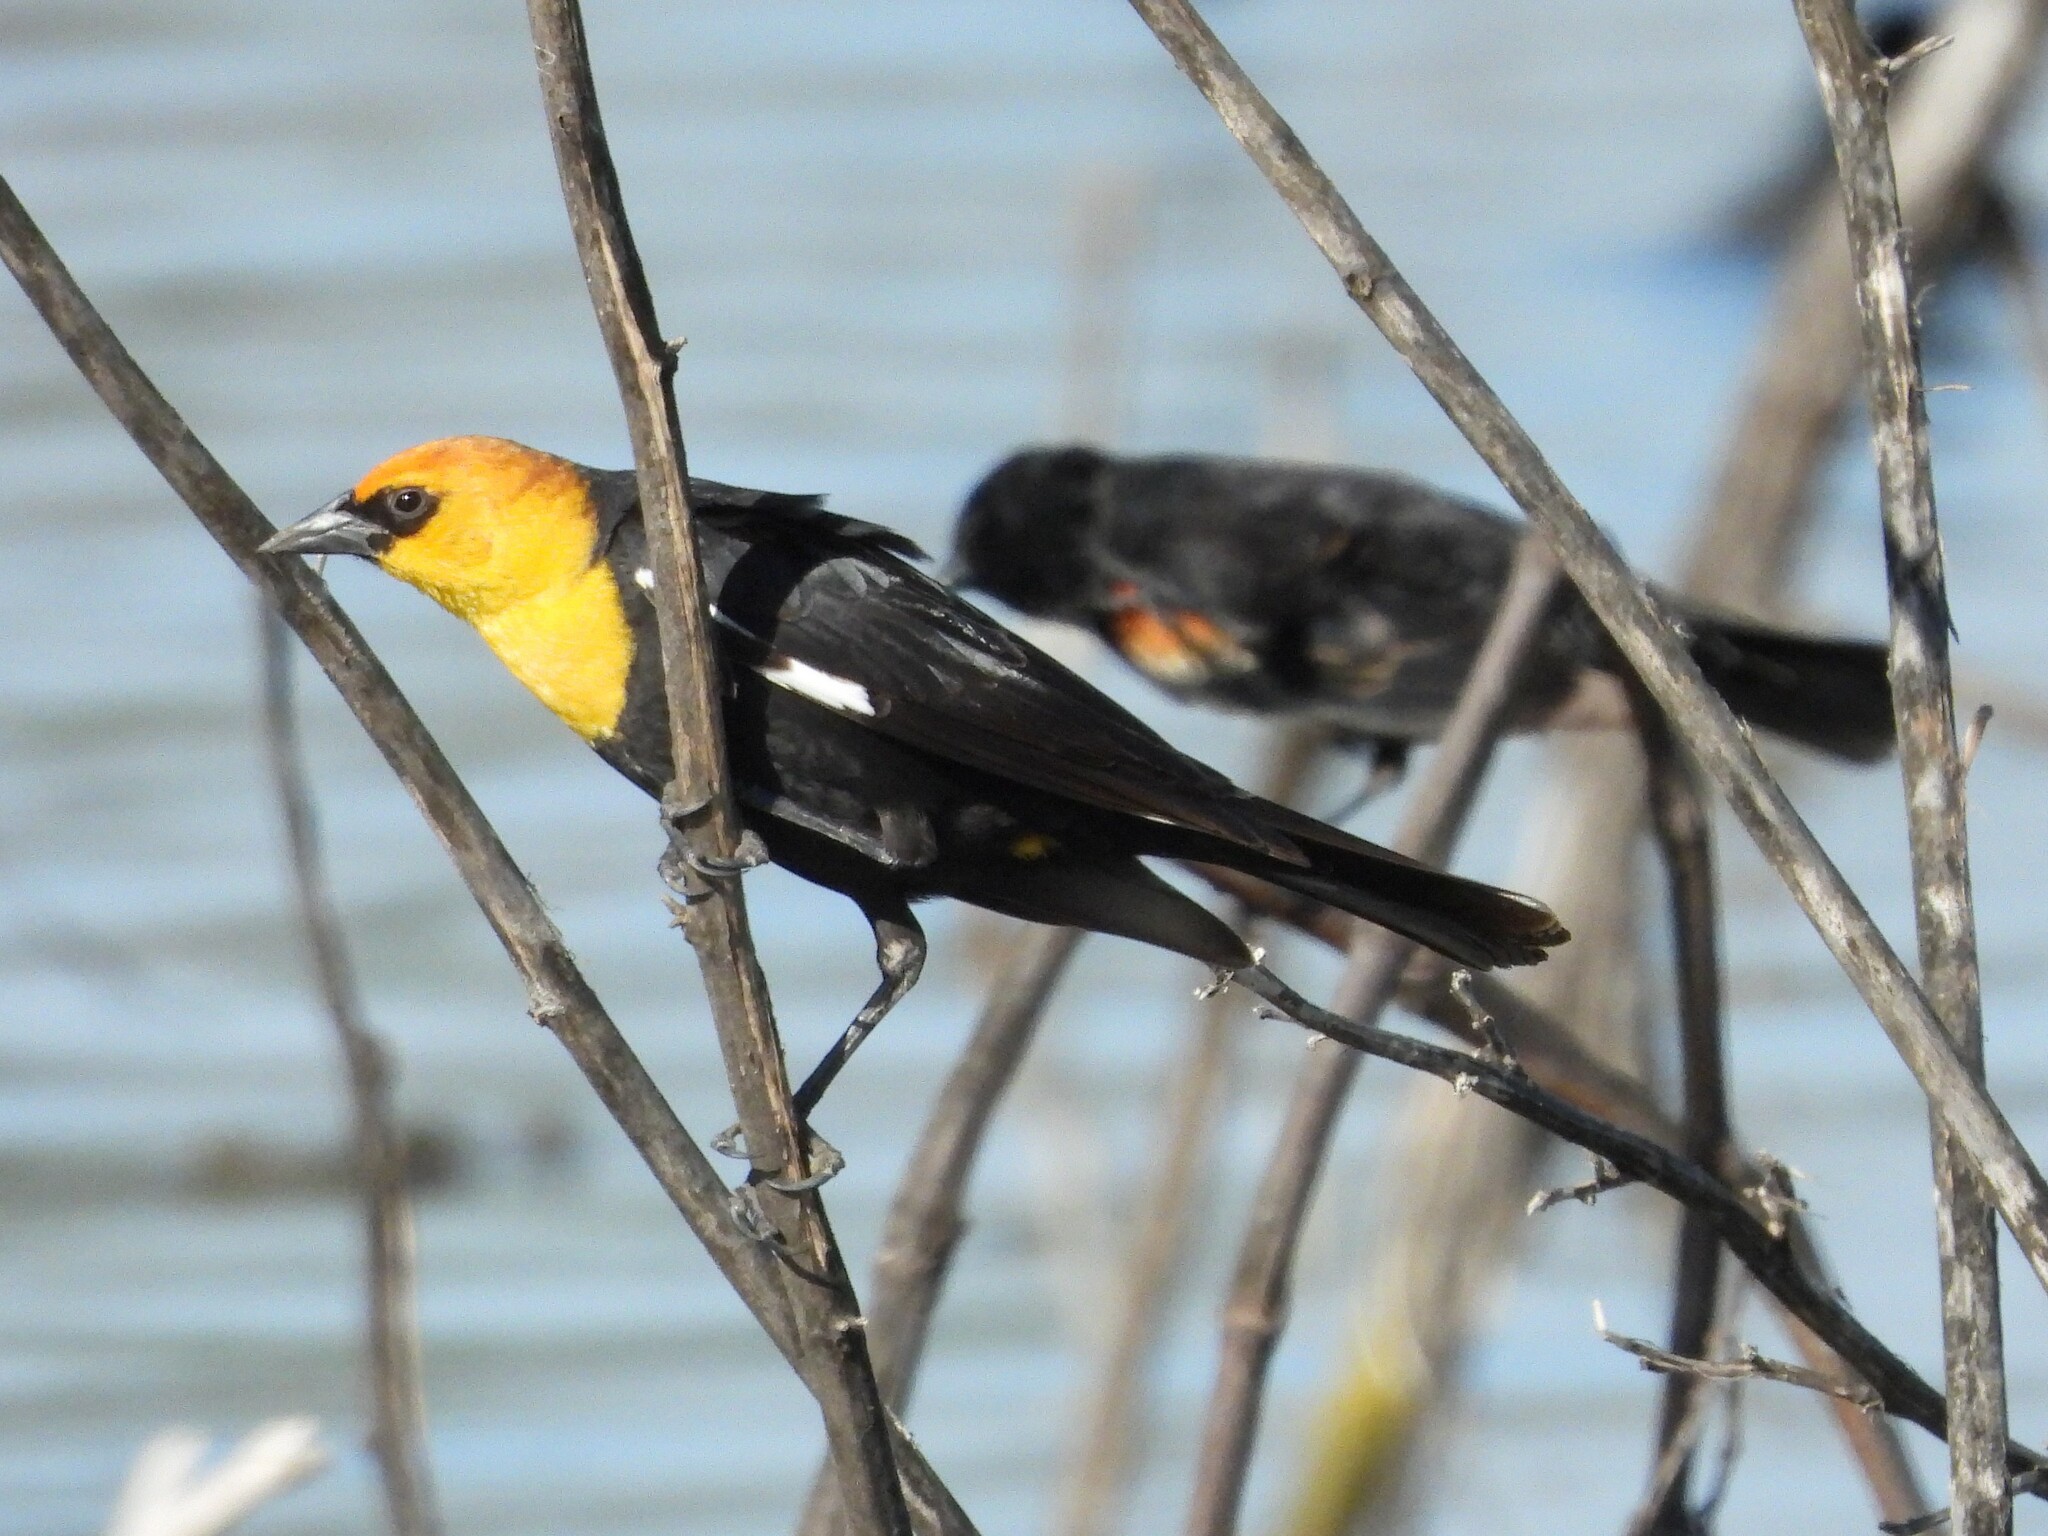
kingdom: Animalia
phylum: Chordata
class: Aves
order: Passeriformes
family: Icteridae
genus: Xanthocephalus
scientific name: Xanthocephalus xanthocephalus
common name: Yellow-headed blackbird
